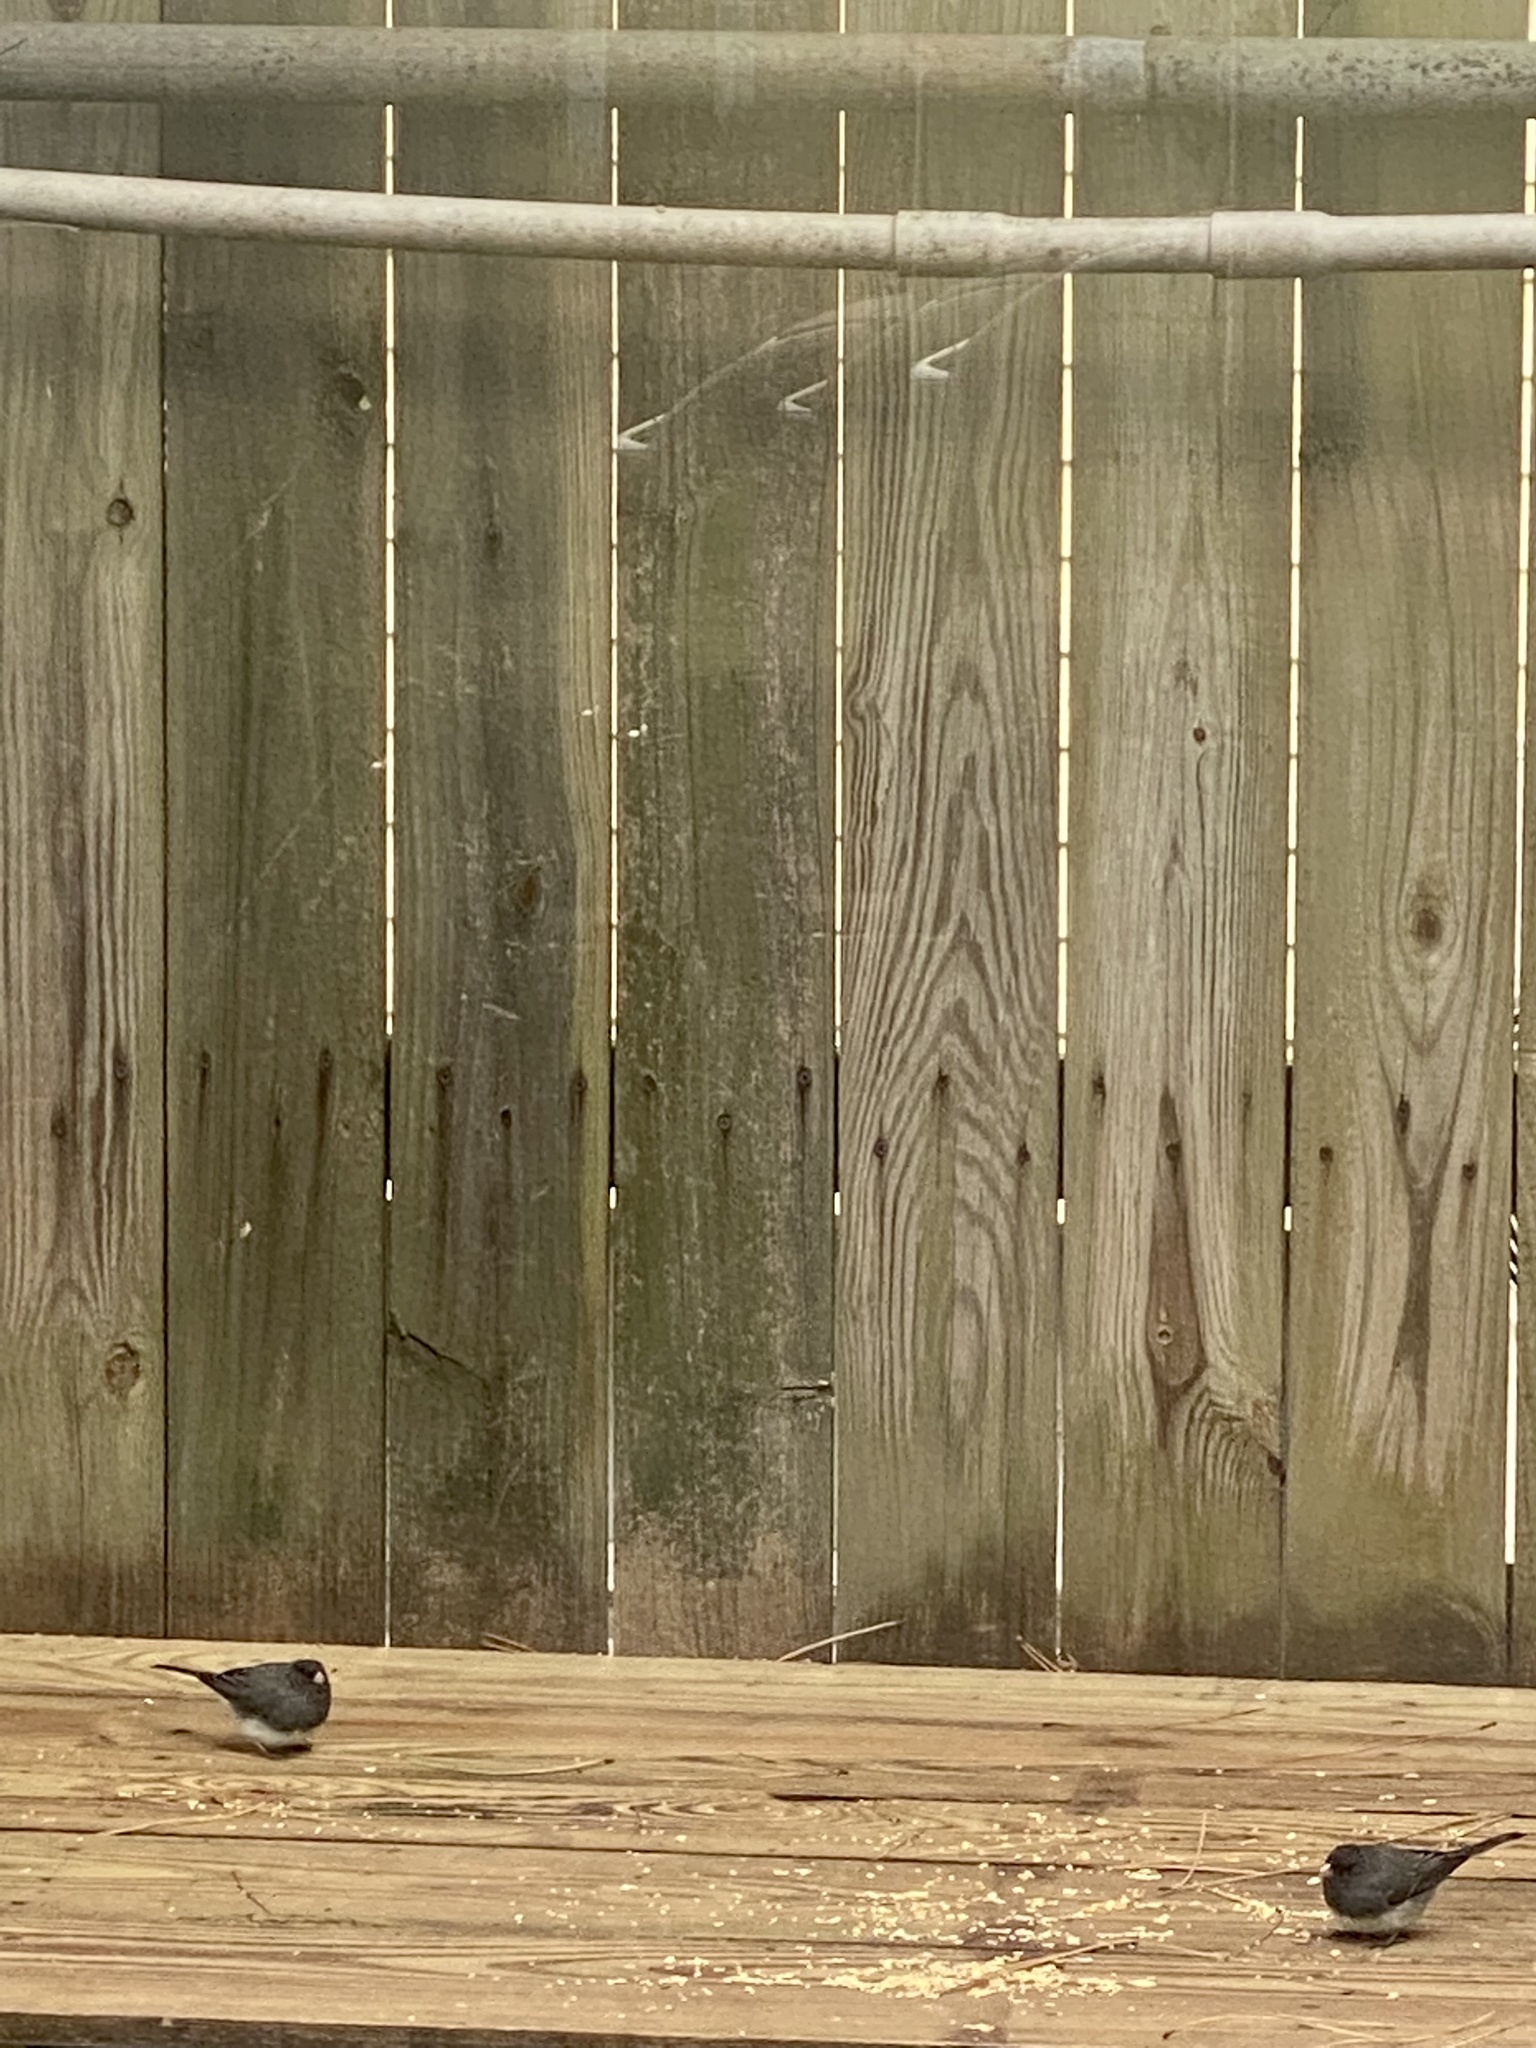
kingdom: Animalia
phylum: Chordata
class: Aves
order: Passeriformes
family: Passerellidae
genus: Junco
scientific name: Junco hyemalis
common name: Dark-eyed junco
